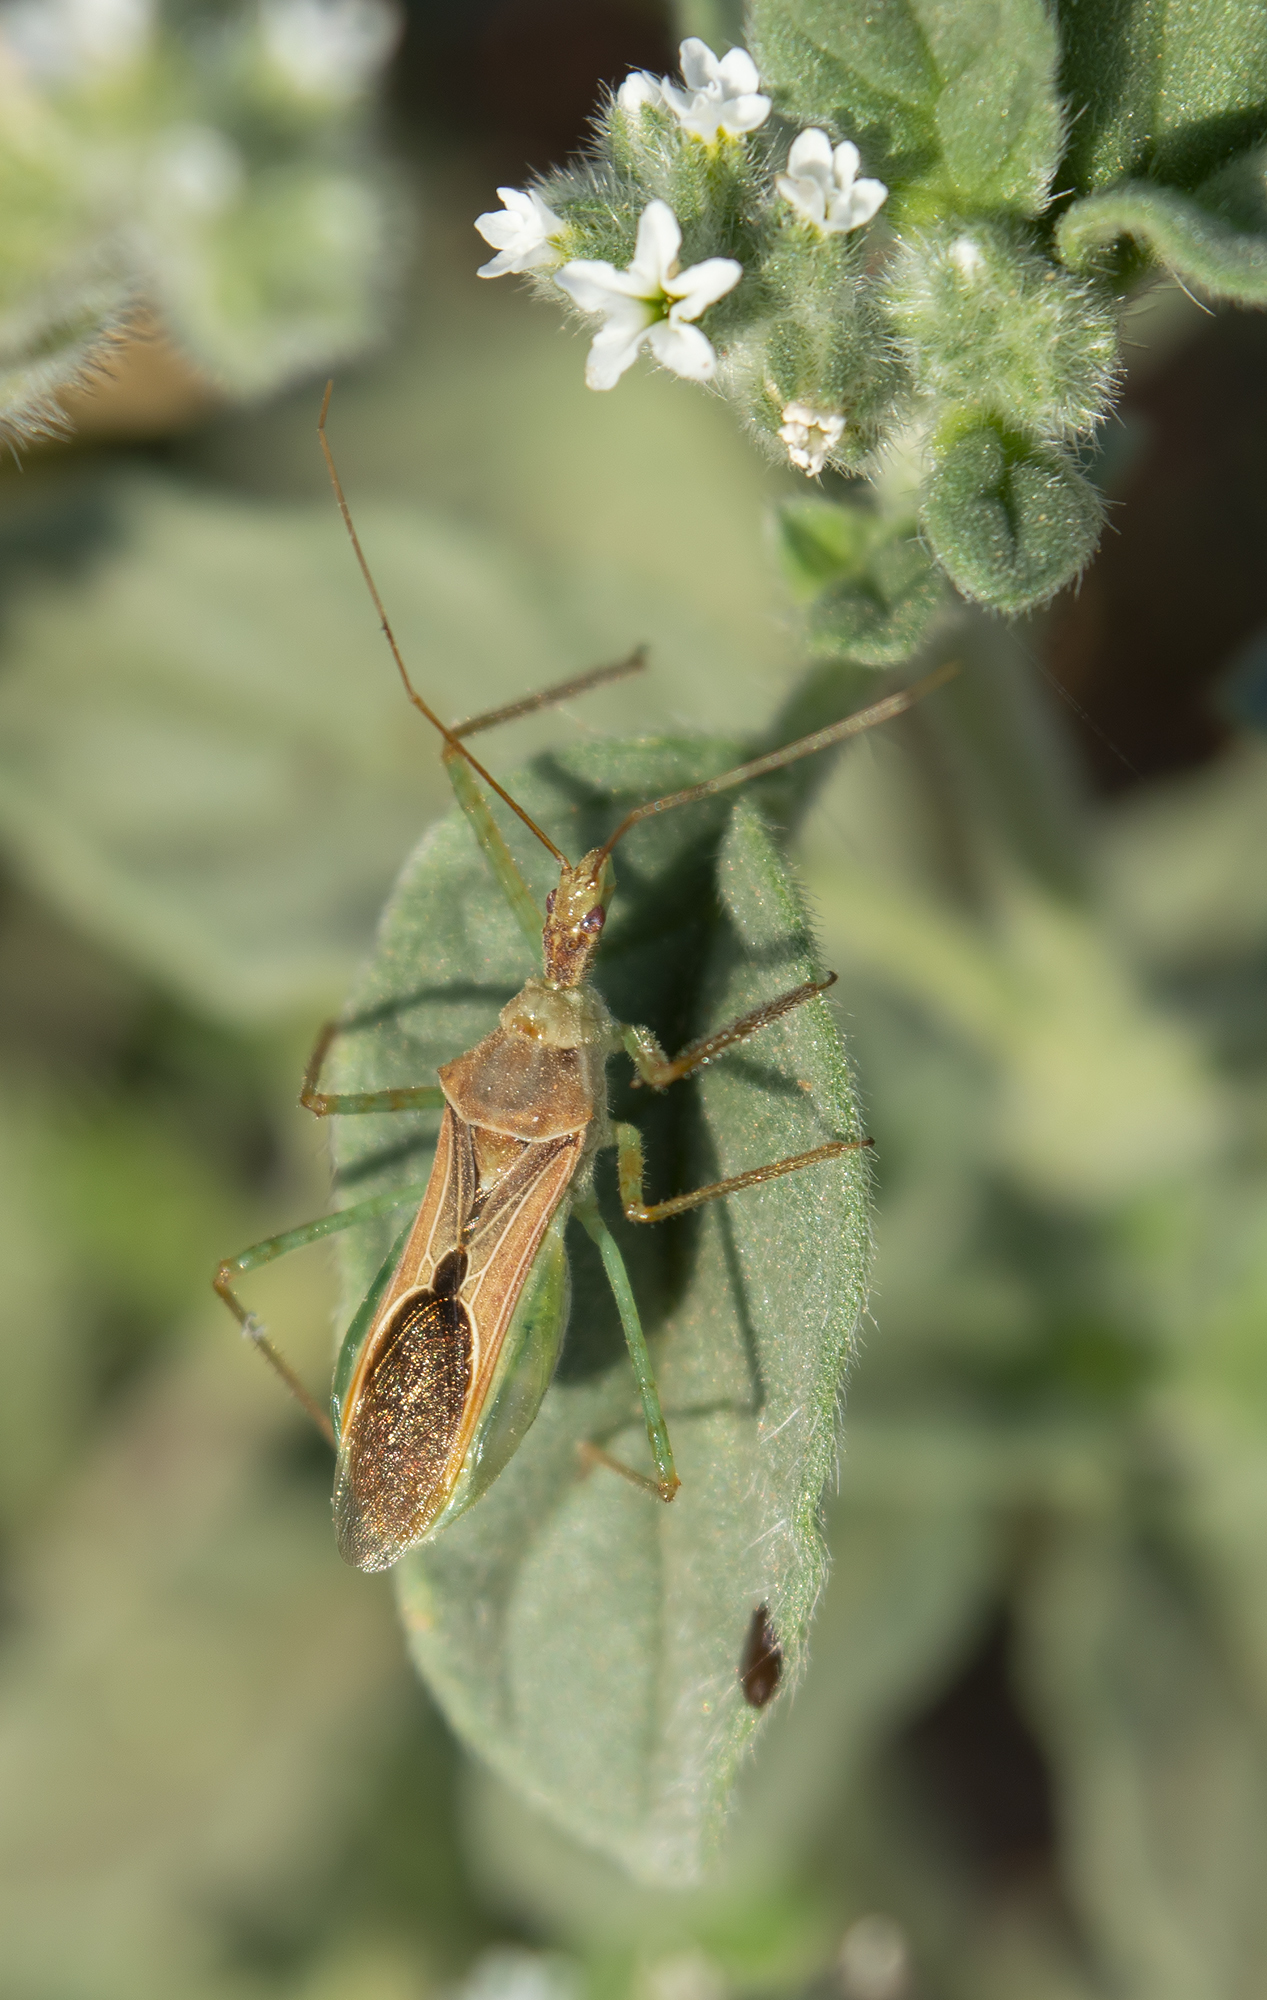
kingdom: Animalia
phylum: Arthropoda
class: Insecta
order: Hemiptera
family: Reduviidae
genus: Zelus
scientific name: Zelus renardii
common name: Assassin bug
